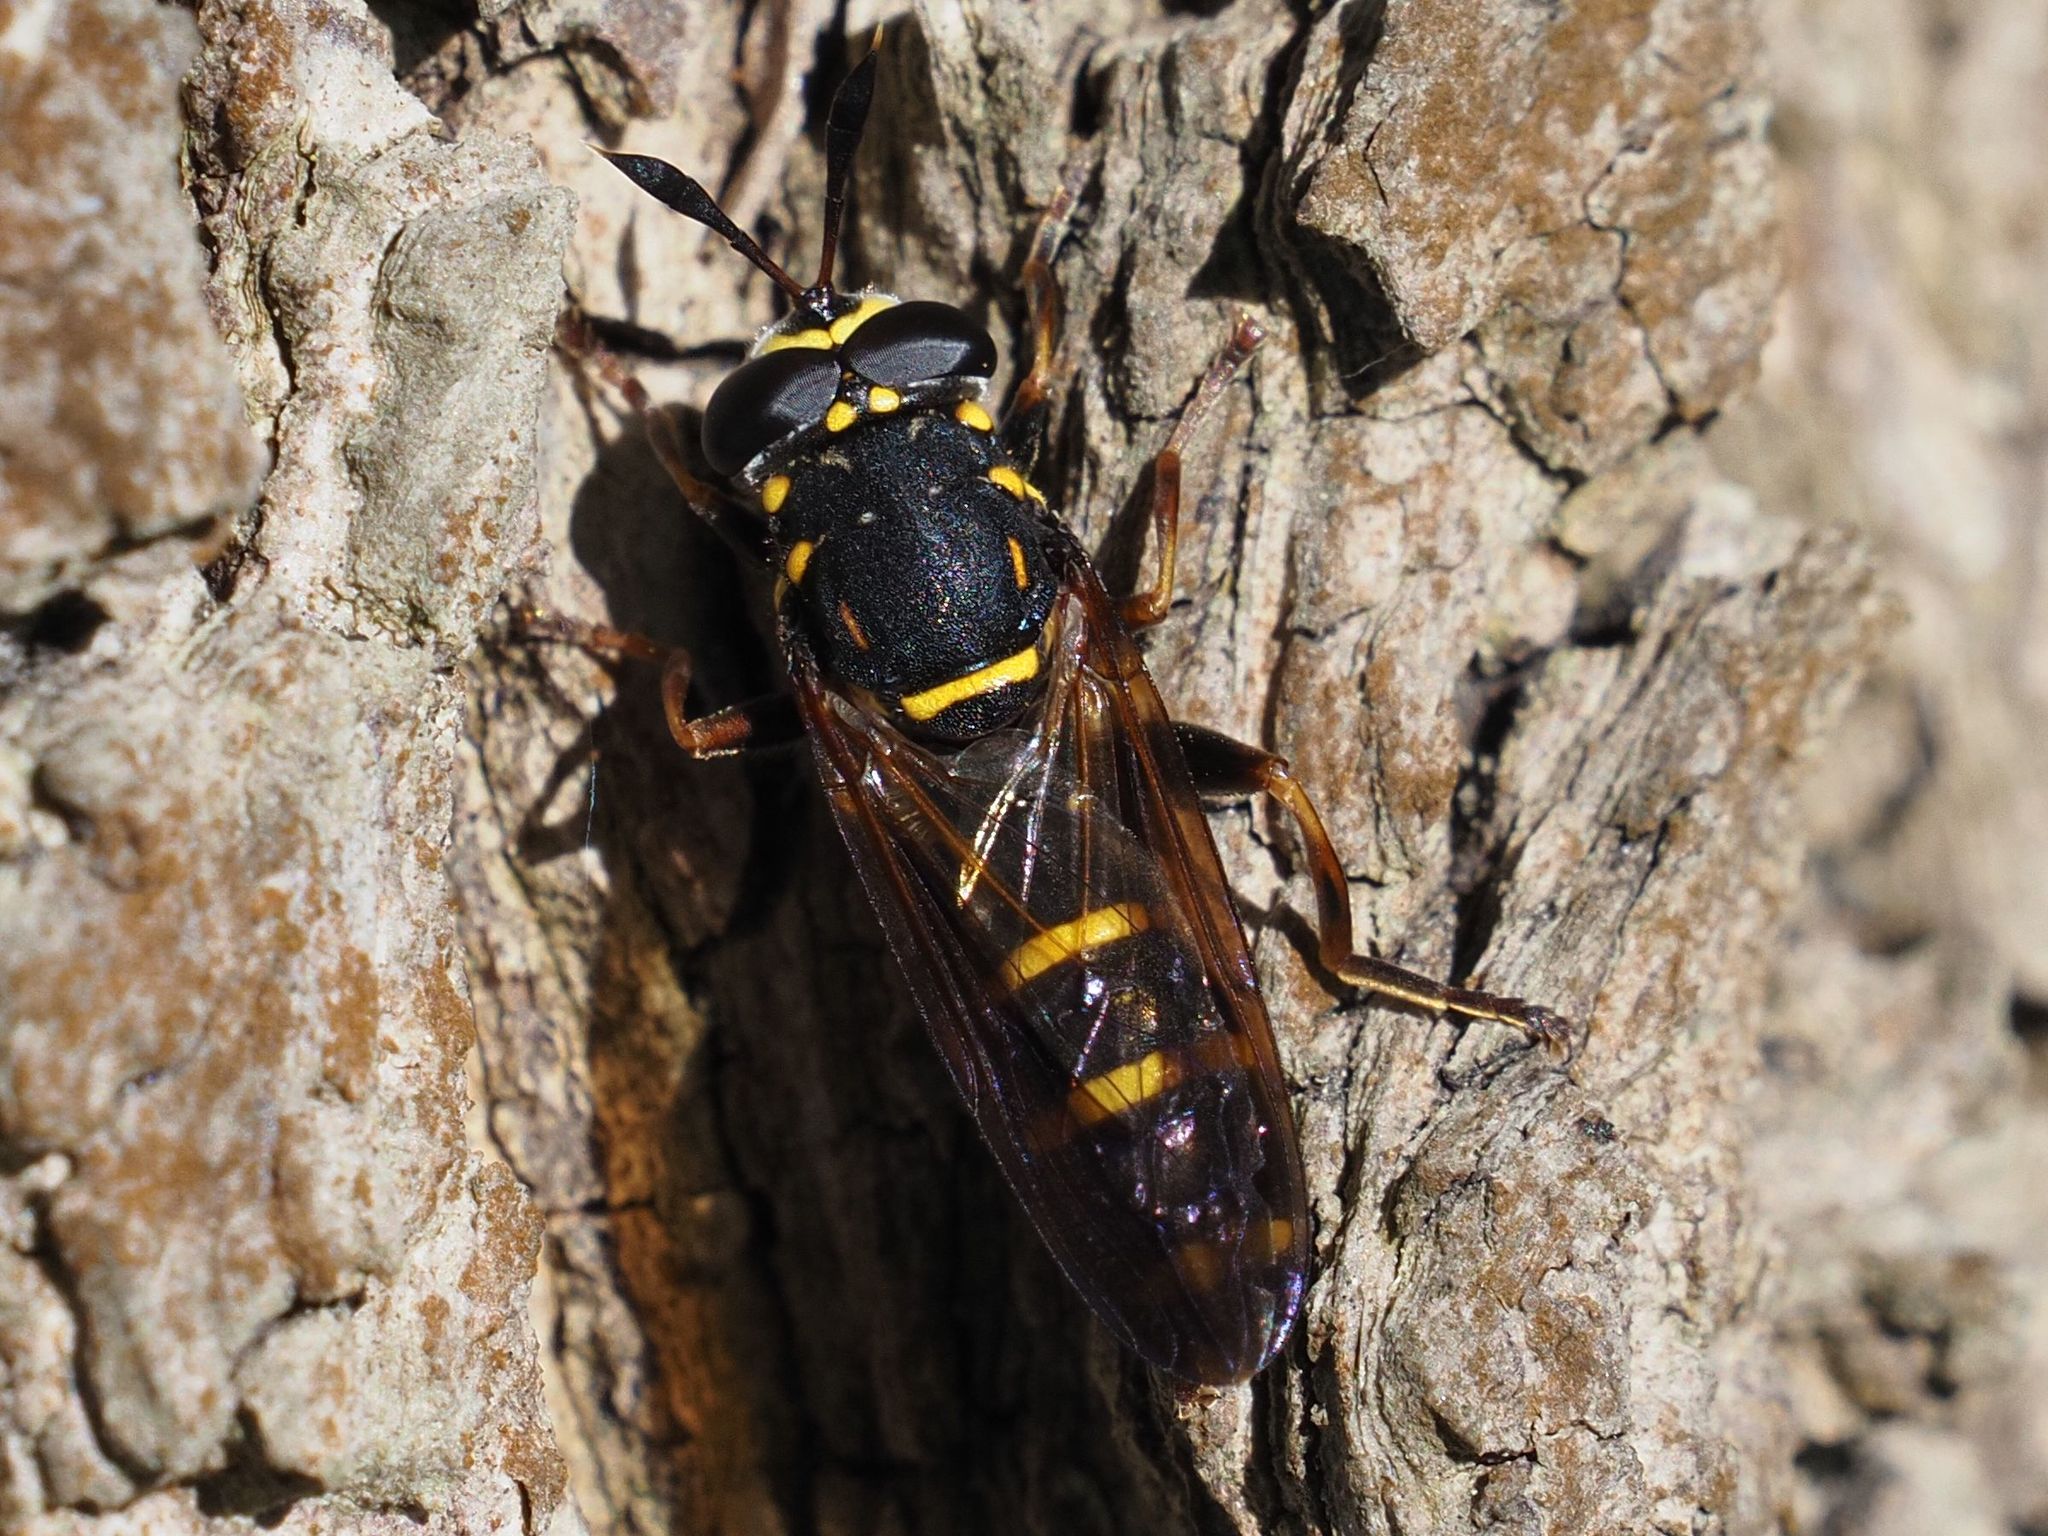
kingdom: Animalia
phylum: Arthropoda
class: Insecta
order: Diptera
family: Syrphidae
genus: Sphiximorpha
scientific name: Sphiximorpha subsessilis
